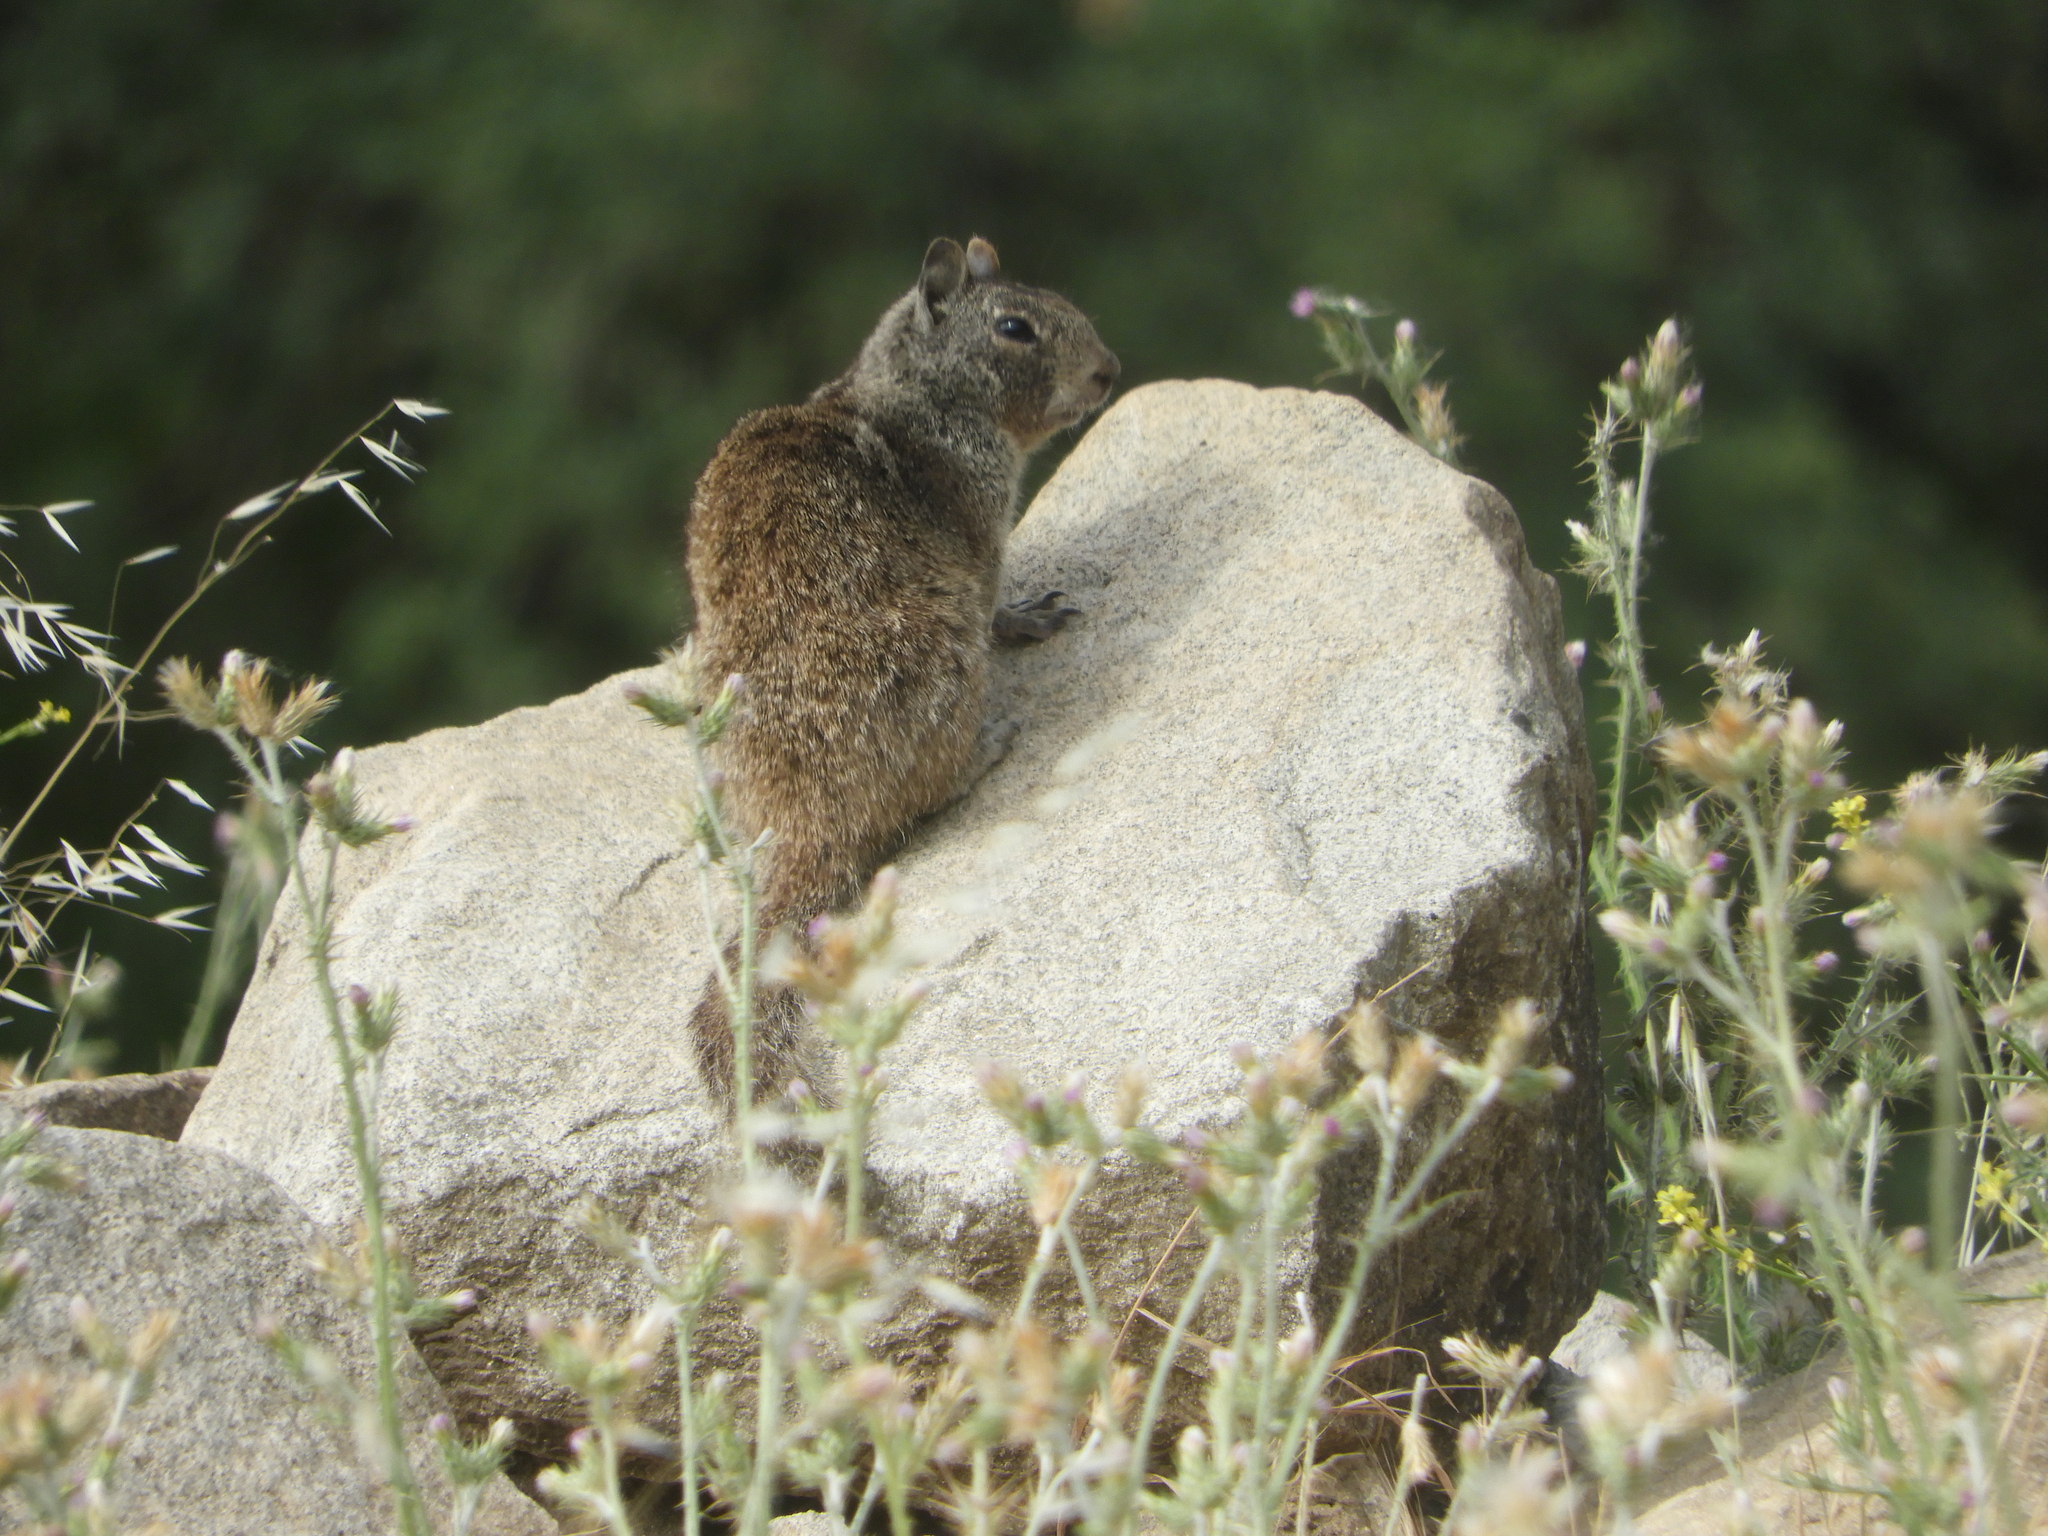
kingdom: Animalia
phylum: Chordata
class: Mammalia
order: Rodentia
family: Sciuridae
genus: Otospermophilus
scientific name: Otospermophilus beecheyi
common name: California ground squirrel
